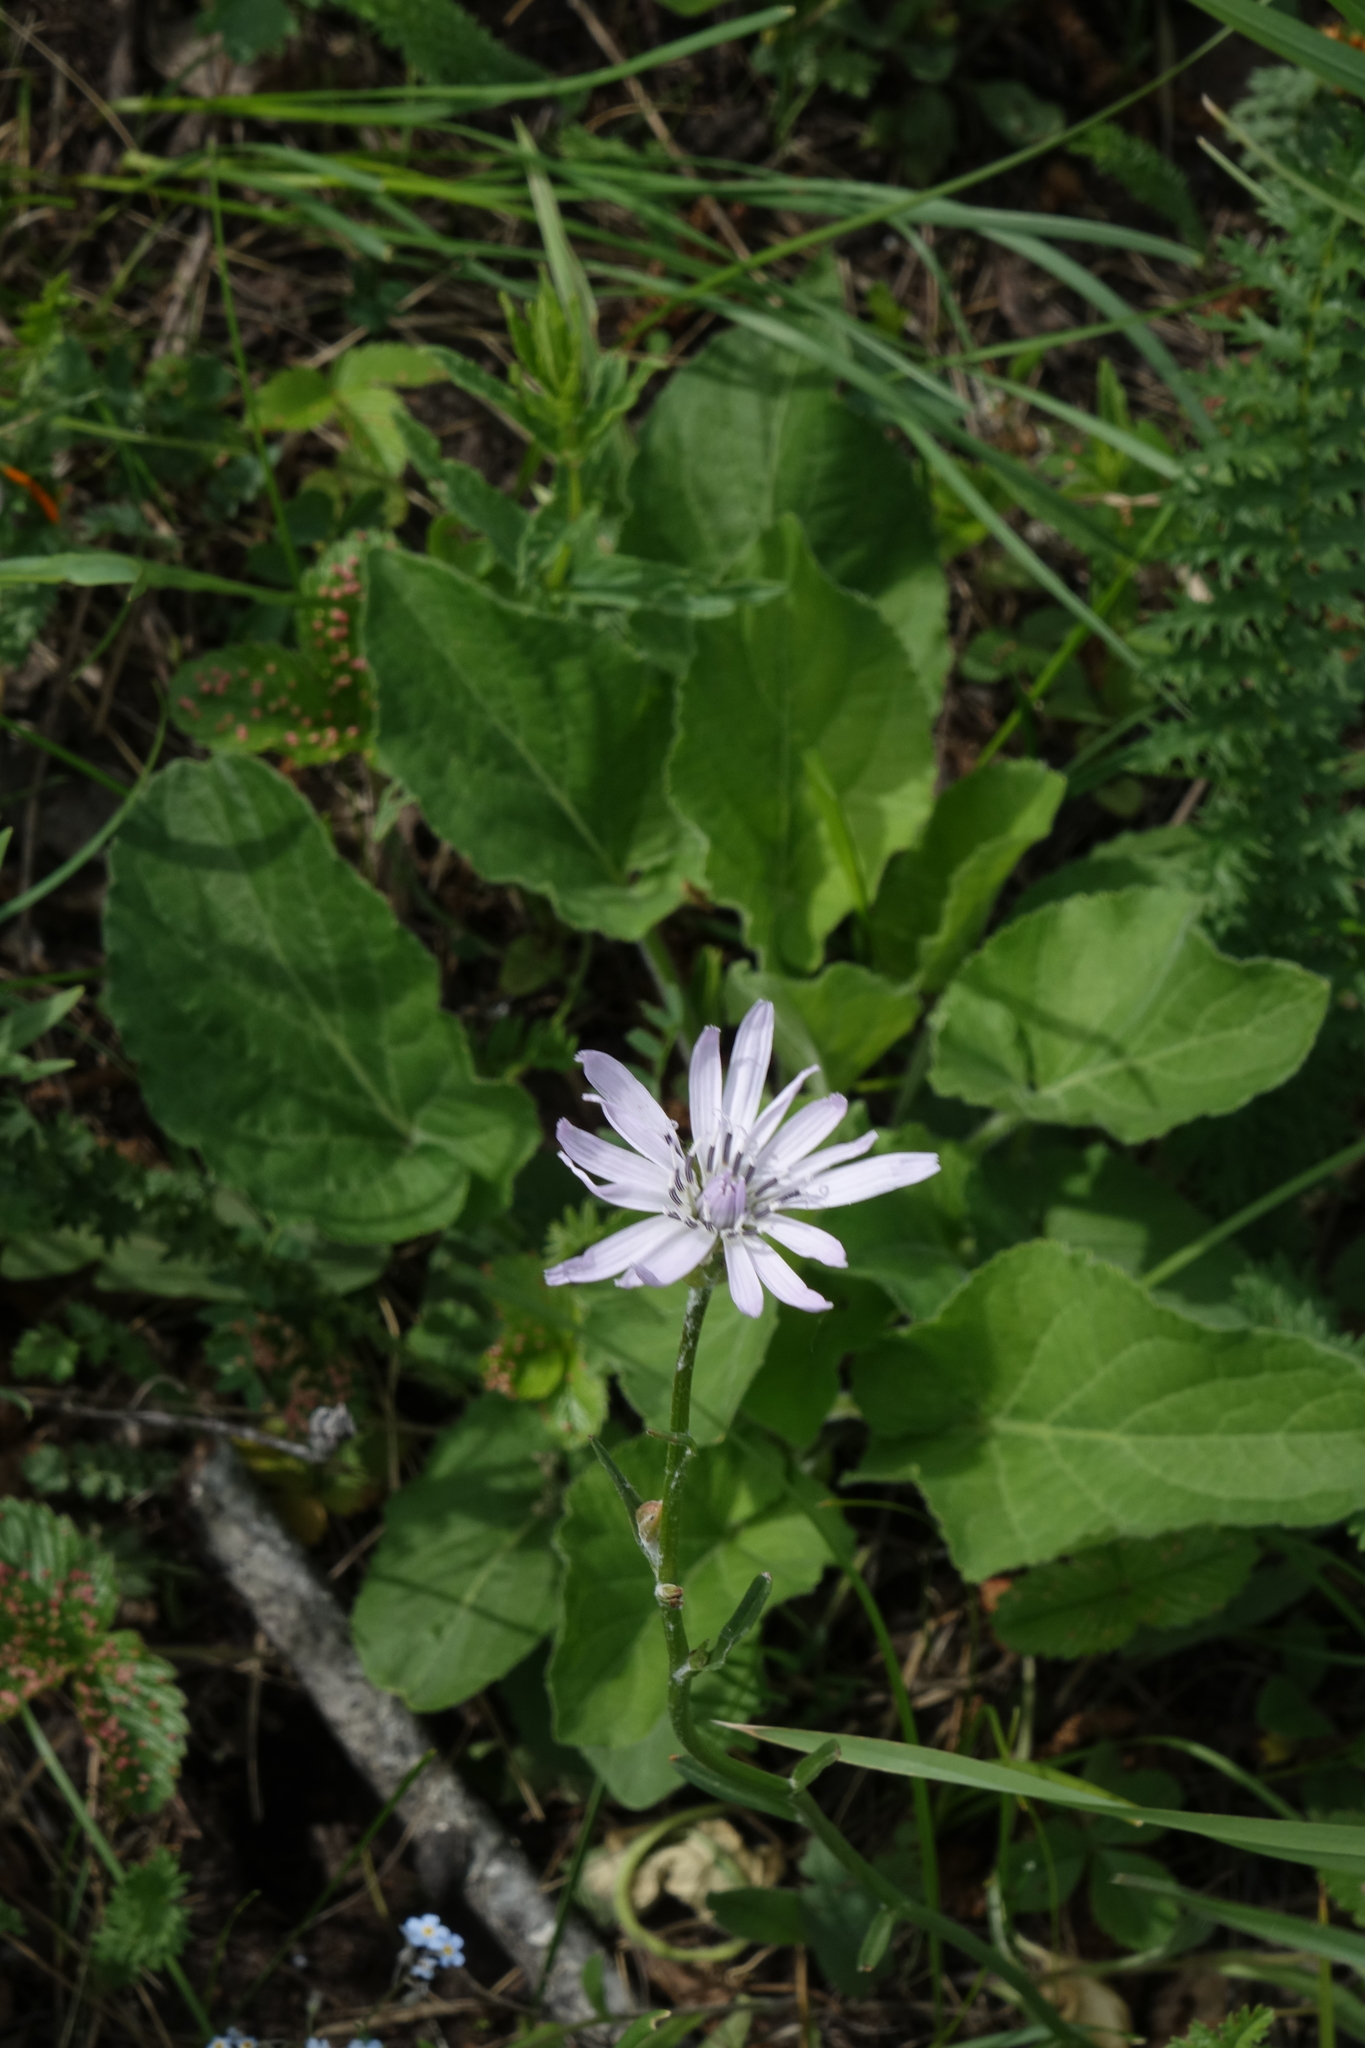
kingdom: Plantae
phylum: Tracheophyta
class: Magnoliopsida
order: Asterales
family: Asteraceae
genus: Scorzonera
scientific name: Scorzonera purpurea
